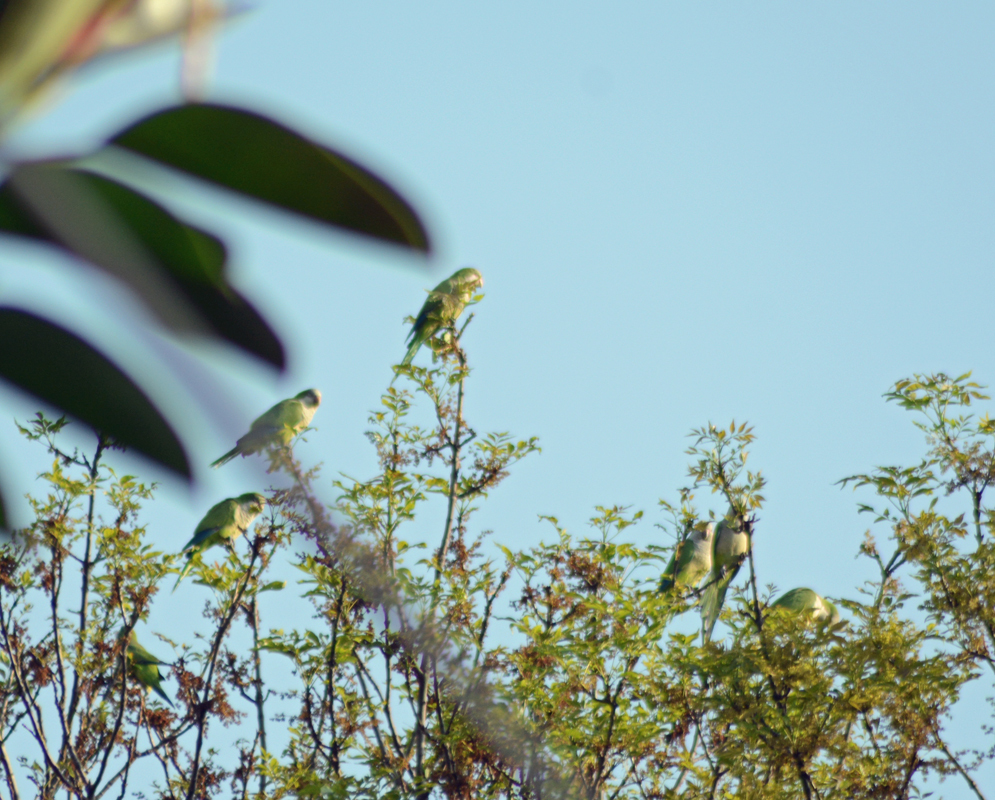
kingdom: Animalia
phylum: Chordata
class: Aves
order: Psittaciformes
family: Psittacidae
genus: Myiopsitta
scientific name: Myiopsitta monachus
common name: Monk parakeet
